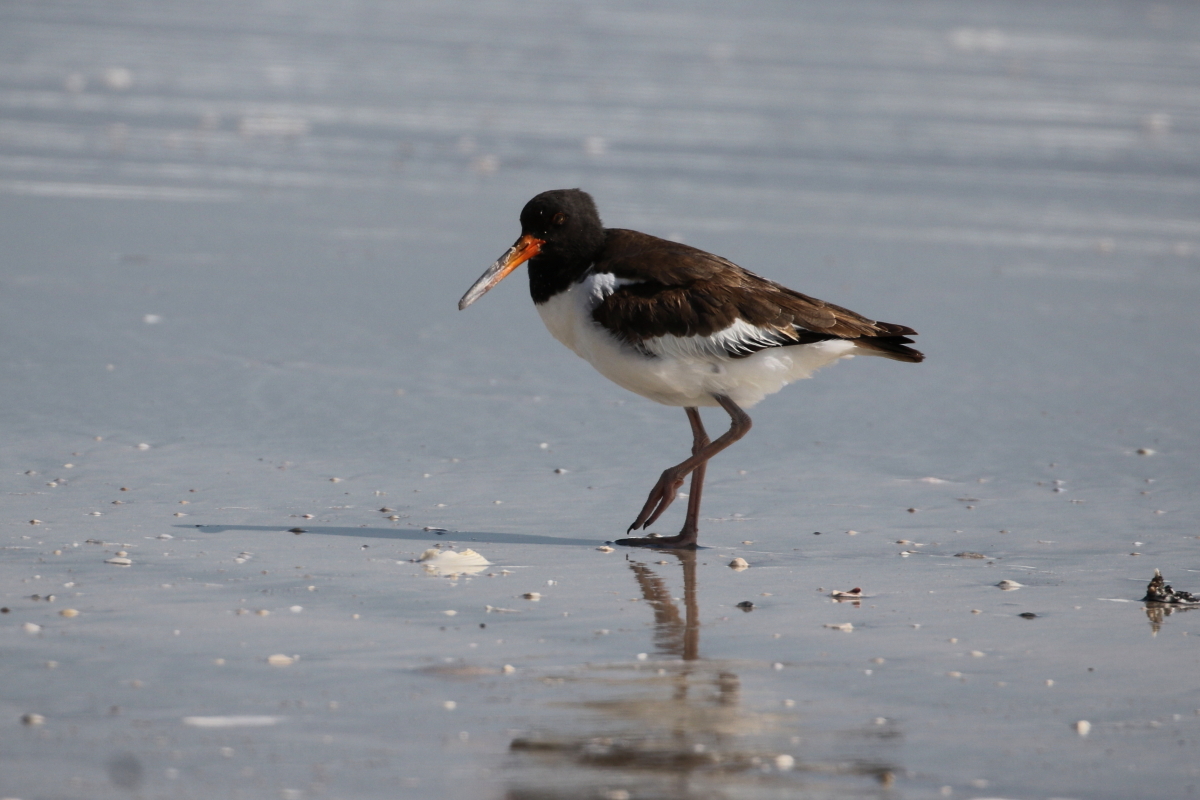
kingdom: Animalia
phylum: Chordata
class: Aves
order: Charadriiformes
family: Haematopodidae
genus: Haematopus
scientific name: Haematopus palliatus
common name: American oystercatcher
